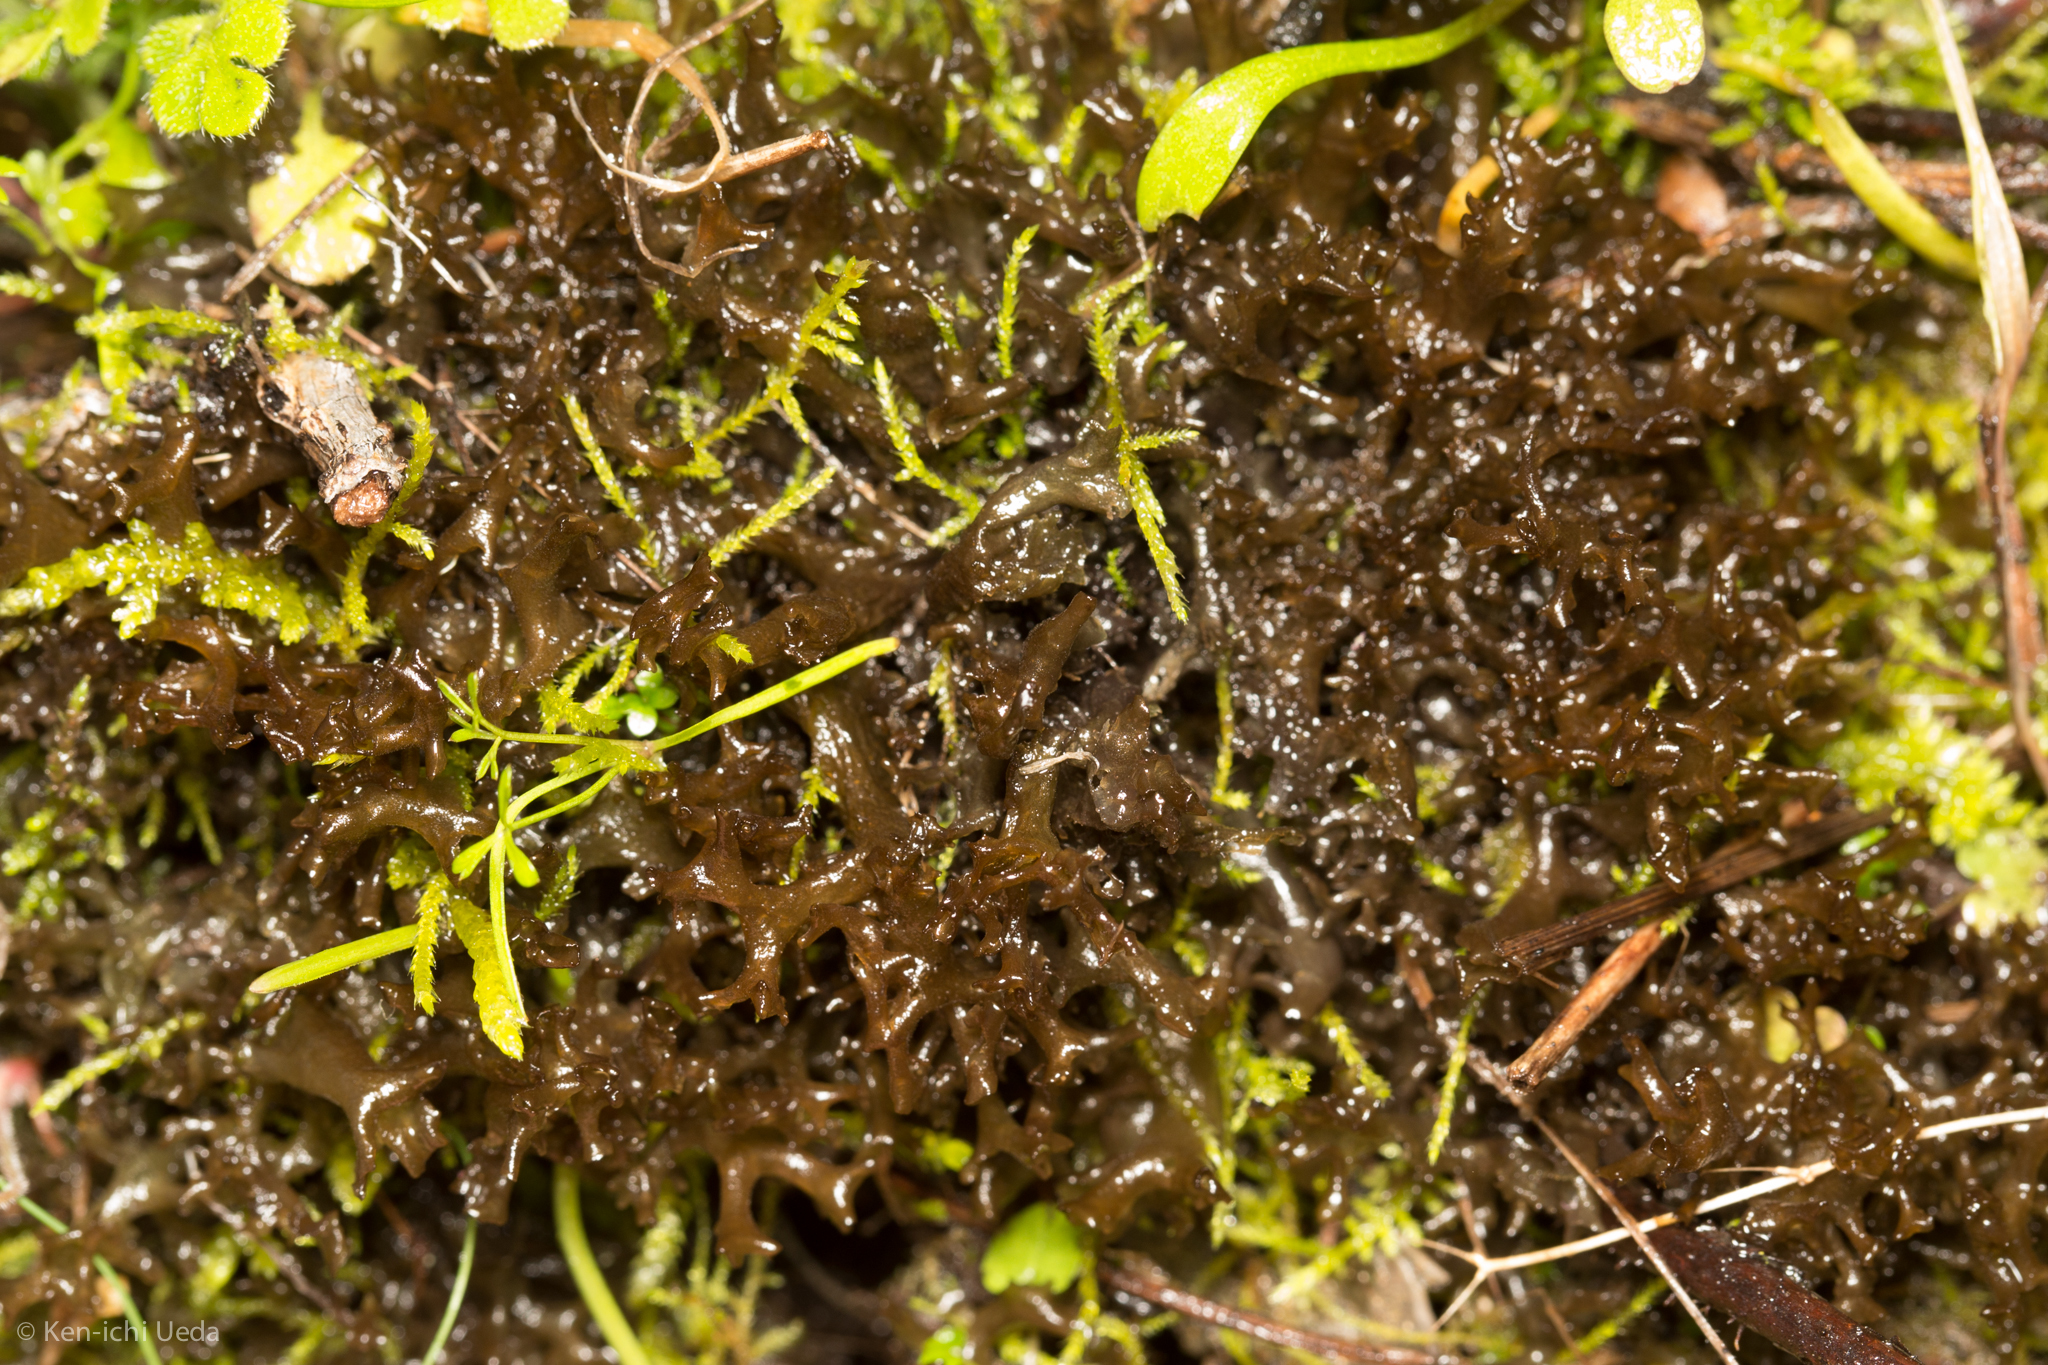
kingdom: Fungi
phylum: Ascomycota
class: Lecanoromycetes
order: Peltigerales
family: Collemataceae
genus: Scytinium
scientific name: Scytinium palmatum
